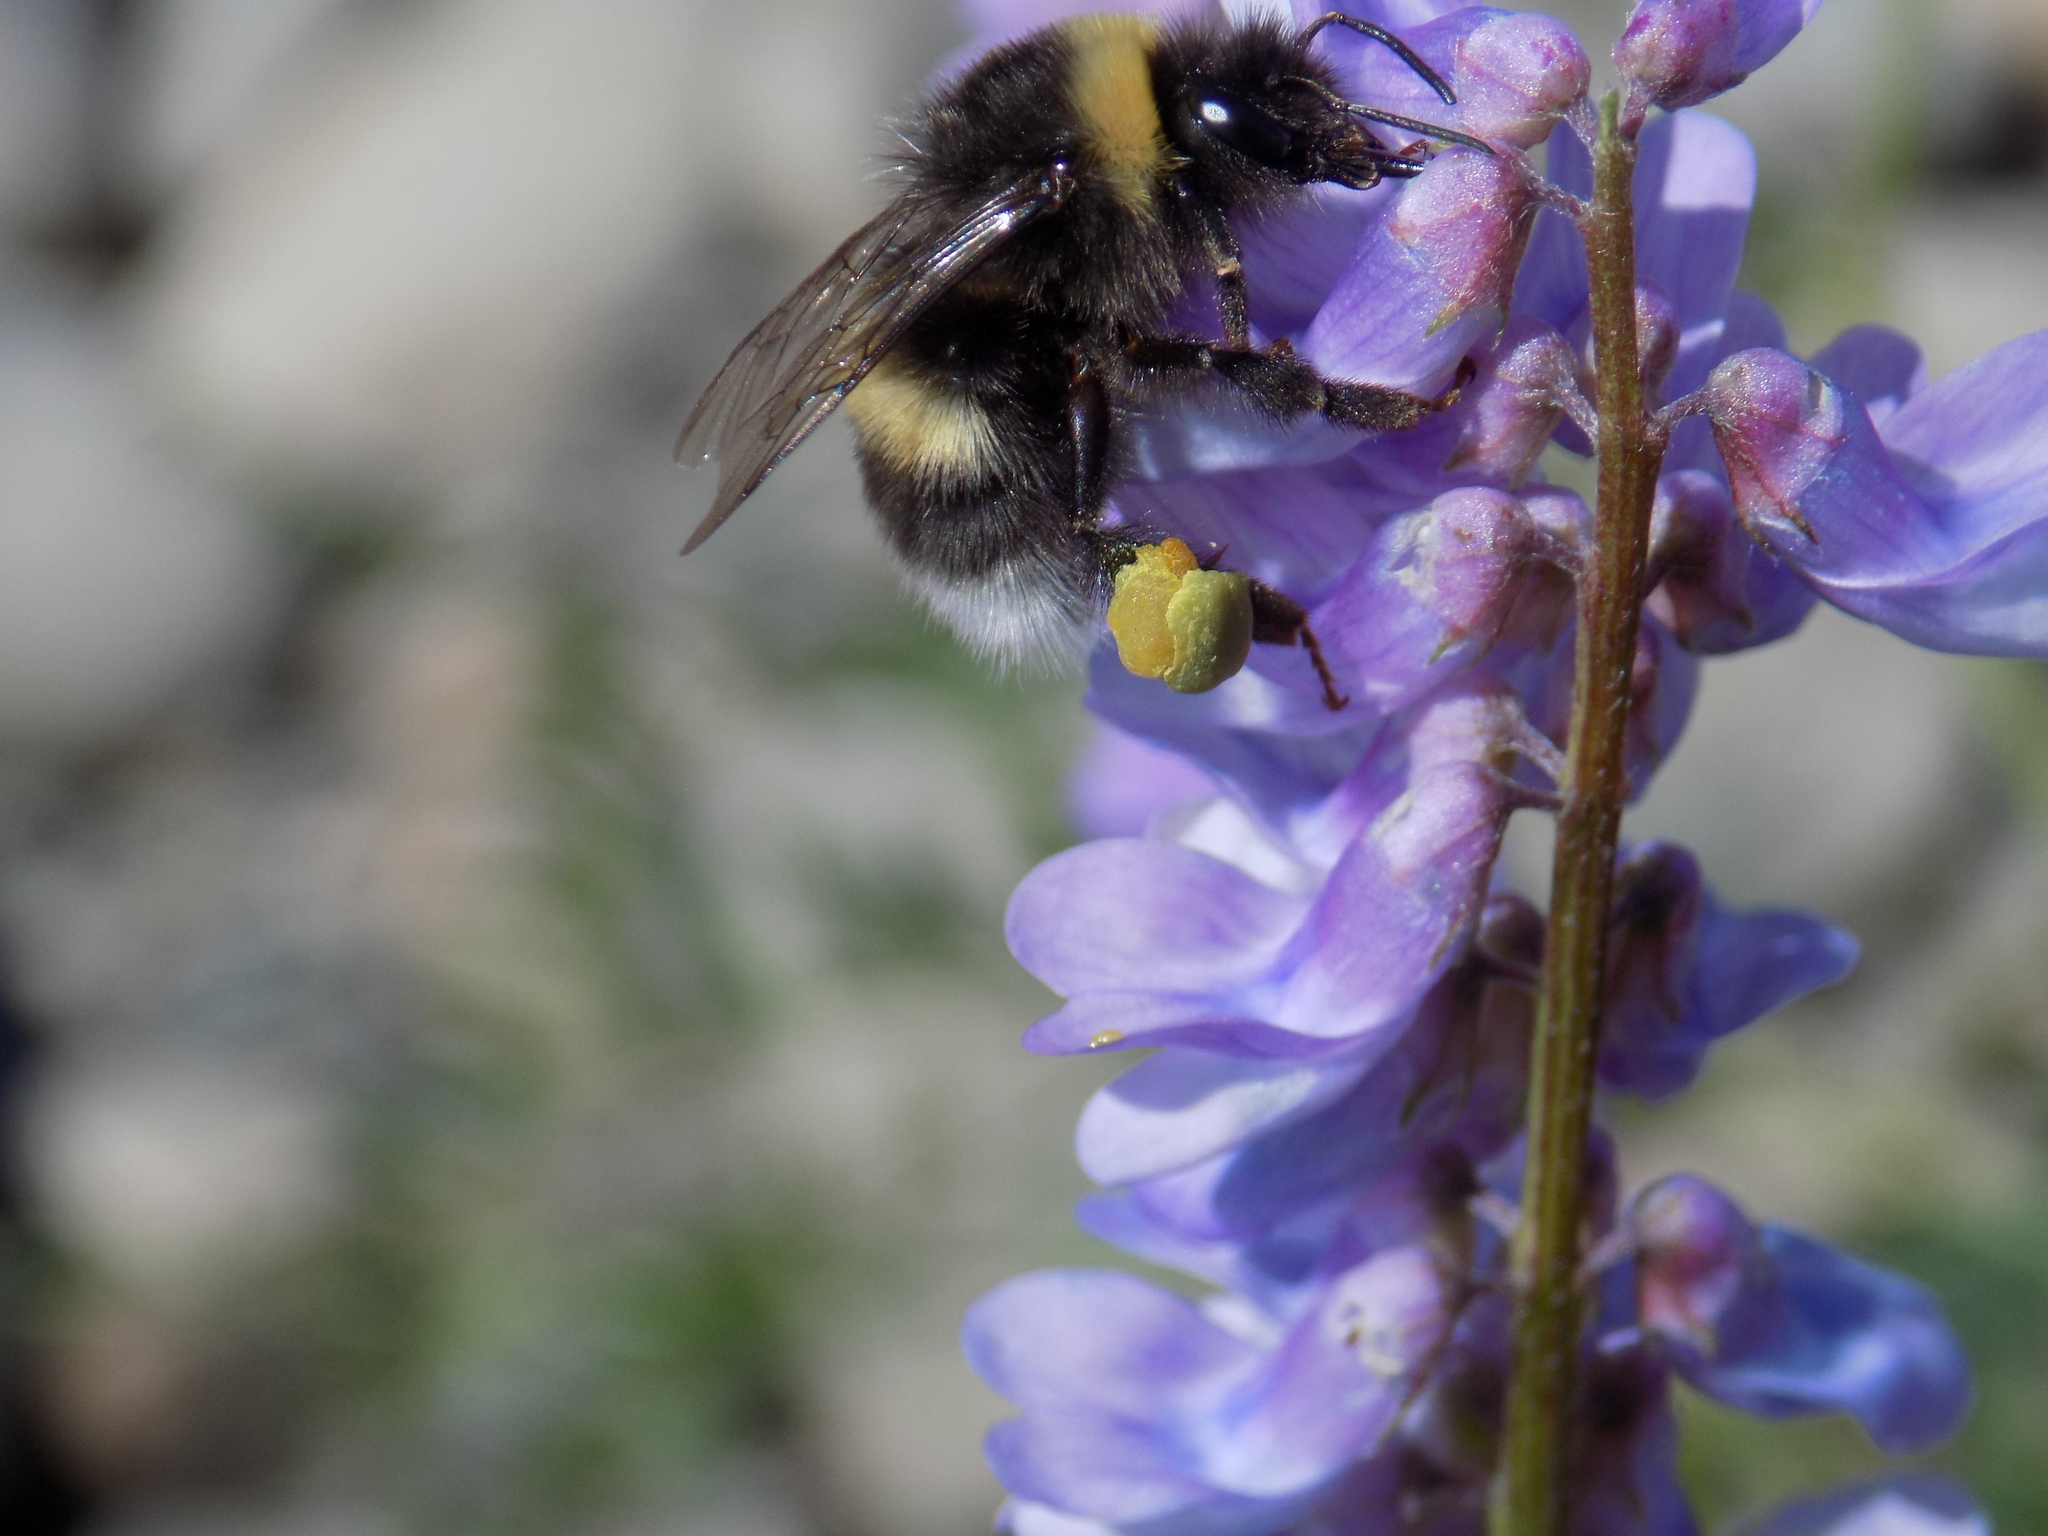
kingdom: Animalia
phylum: Arthropoda
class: Insecta
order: Hymenoptera
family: Apidae
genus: Bombus
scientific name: Bombus
